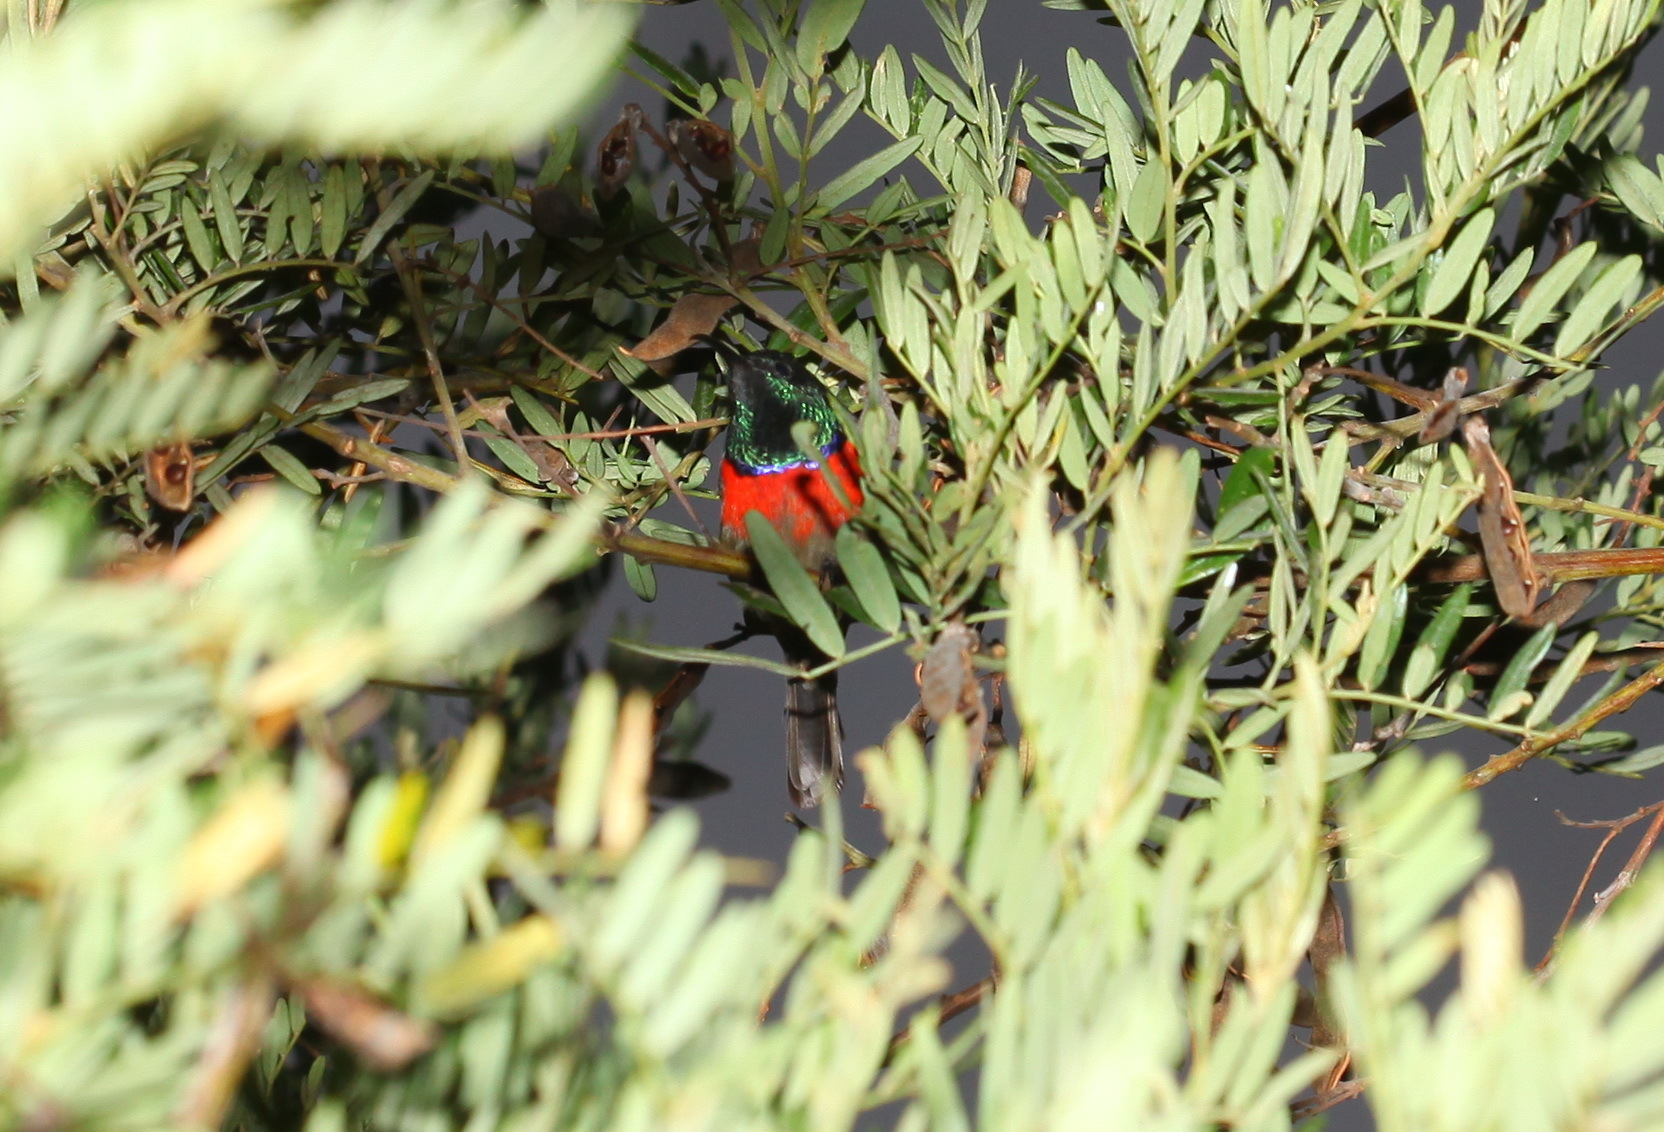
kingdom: Animalia
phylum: Chordata
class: Aves
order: Passeriformes
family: Nectariniidae
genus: Cinnyris
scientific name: Cinnyris afer
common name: Greater double-collared sunbird
